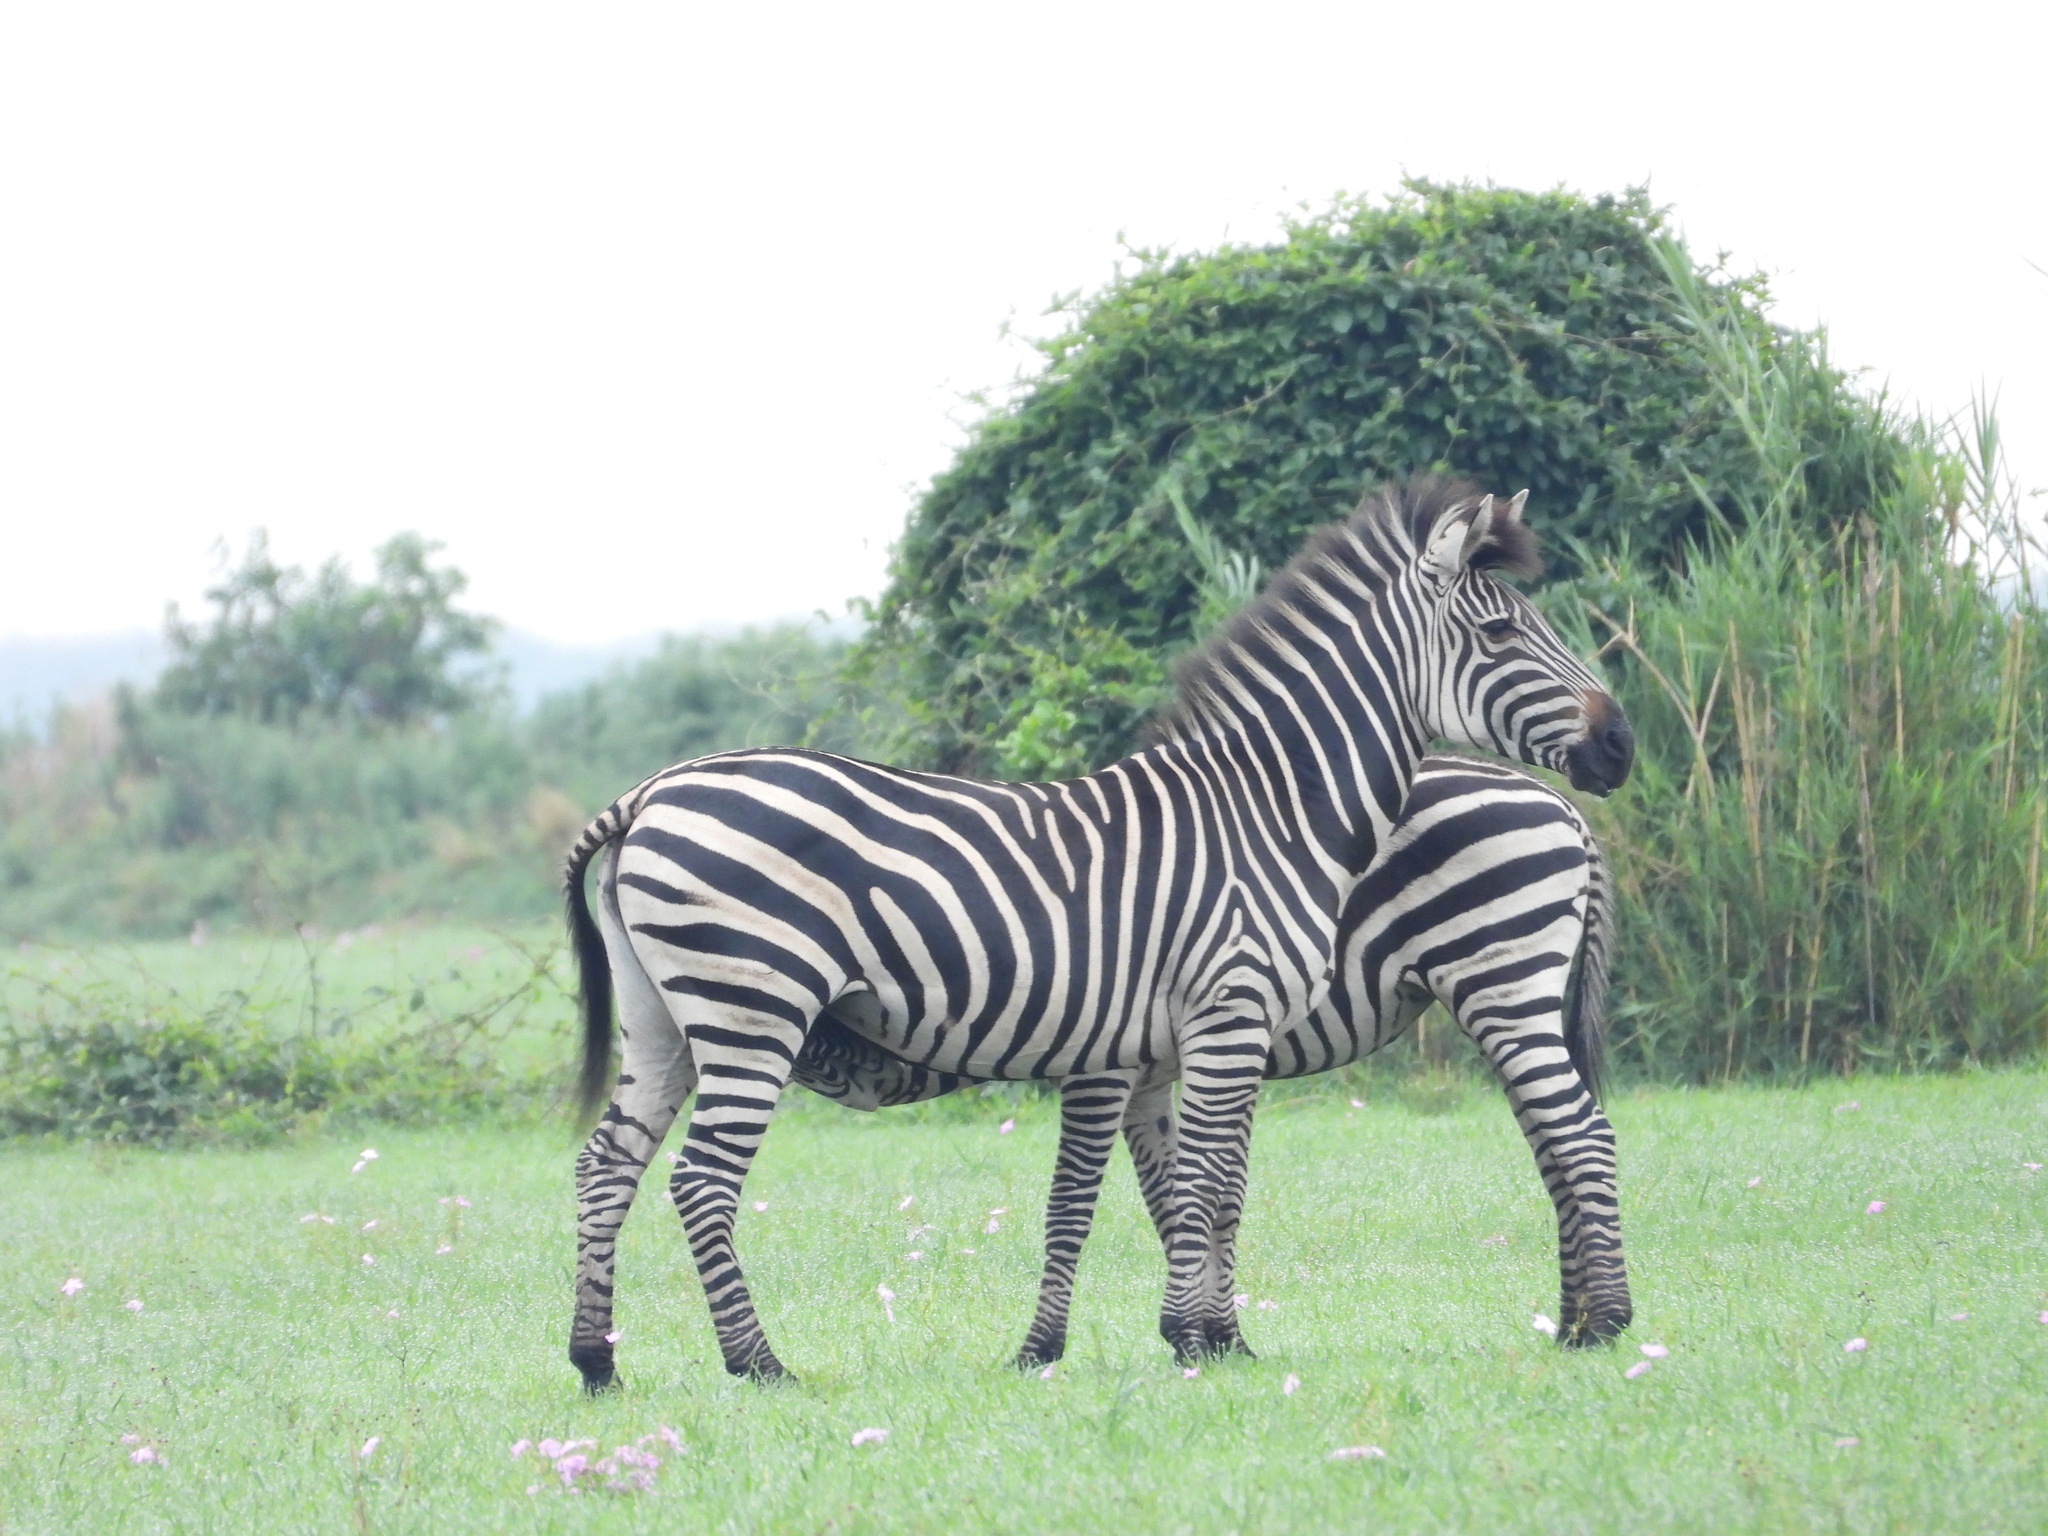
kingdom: Animalia
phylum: Chordata
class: Mammalia
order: Perissodactyla
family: Equidae
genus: Equus
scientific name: Equus quagga
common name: Plains zebra
